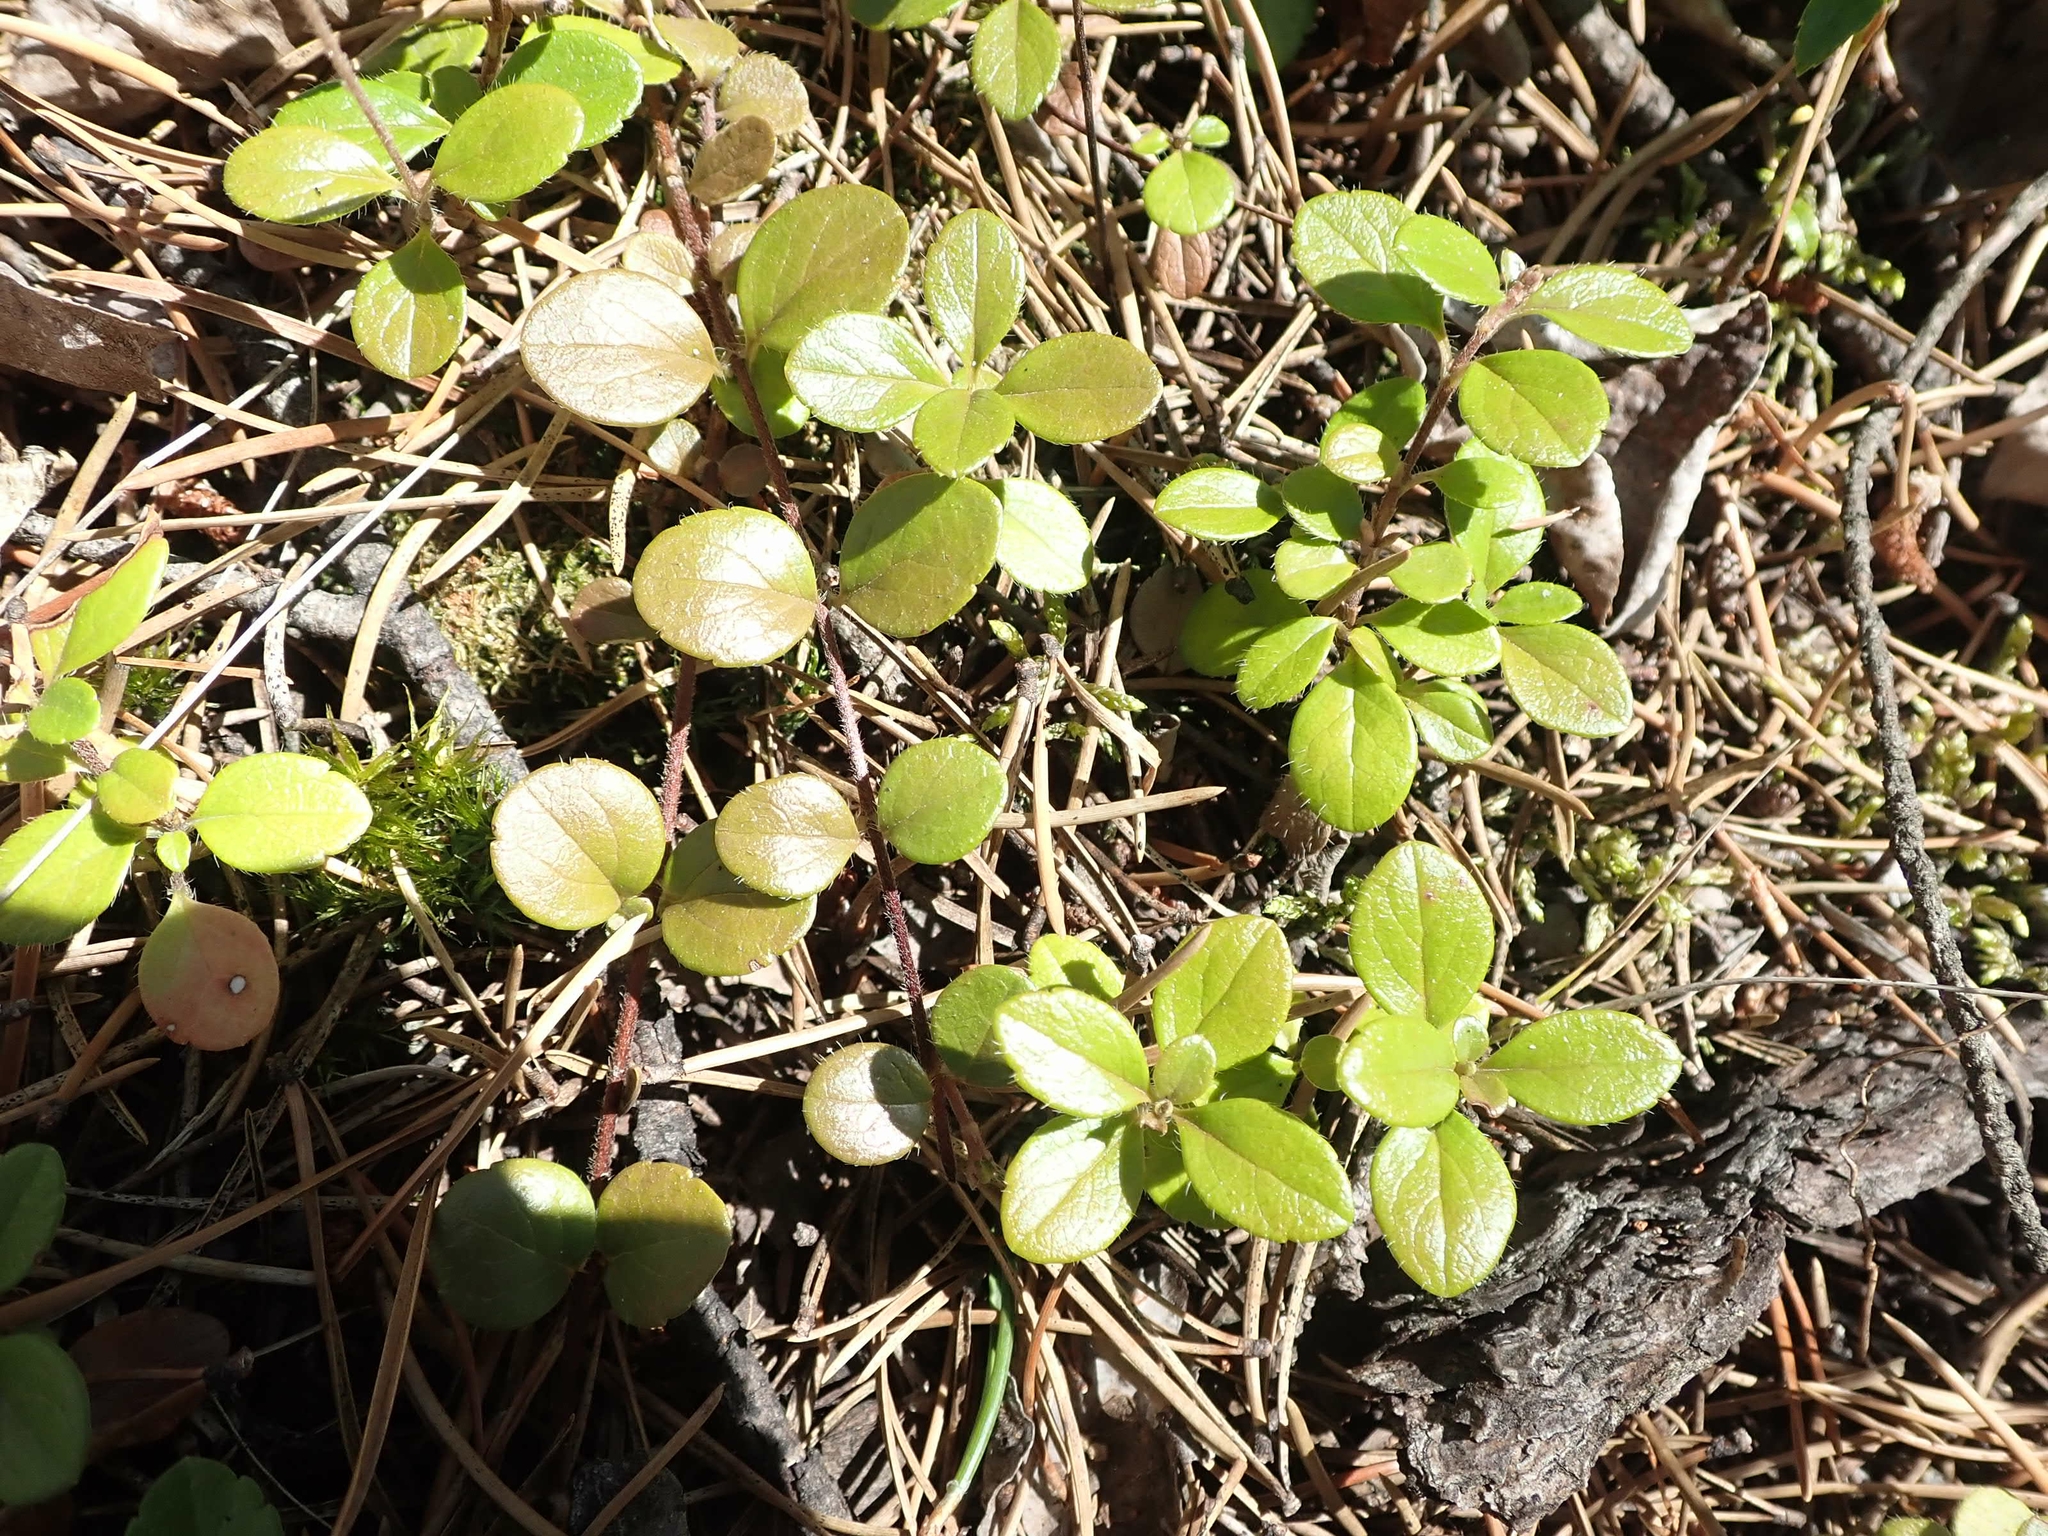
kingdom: Plantae
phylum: Tracheophyta
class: Magnoliopsida
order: Dipsacales
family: Caprifoliaceae
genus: Linnaea
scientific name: Linnaea borealis
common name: Twinflower
